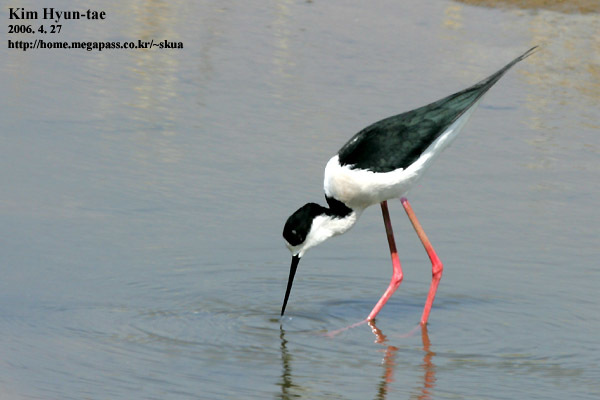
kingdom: Animalia
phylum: Chordata
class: Aves
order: Charadriiformes
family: Recurvirostridae
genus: Himantopus
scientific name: Himantopus himantopus
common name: Black-winged stilt
